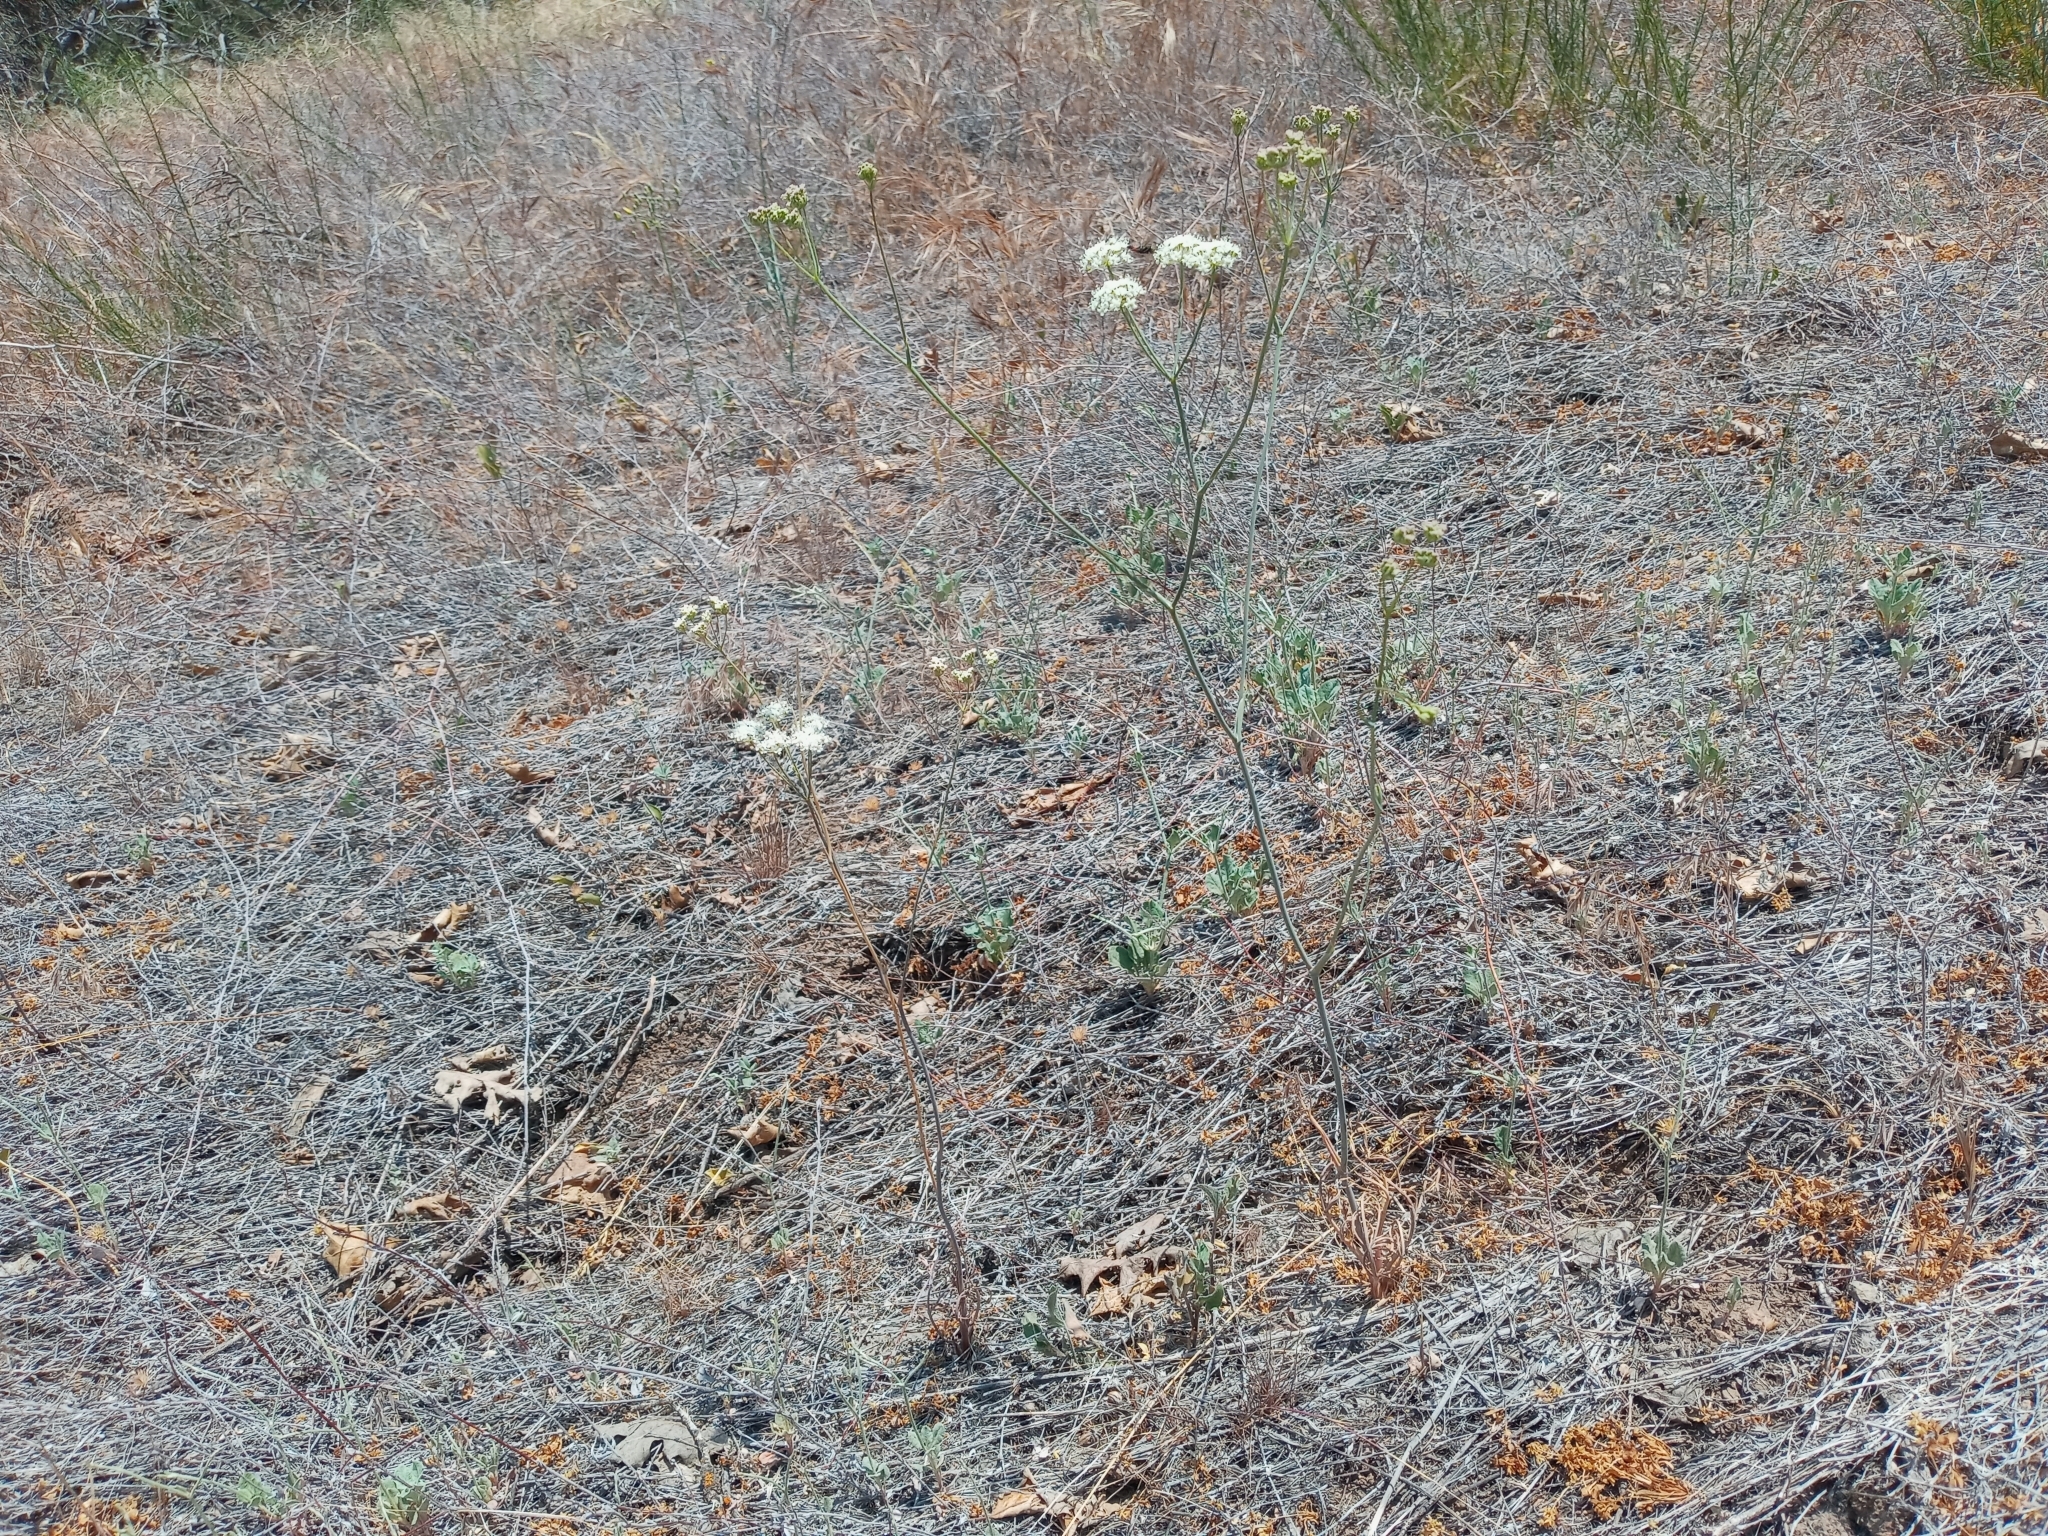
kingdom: Plantae
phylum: Tracheophyta
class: Magnoliopsida
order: Apiales
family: Apiaceae
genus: Perideridia
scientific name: Perideridia pringlei
